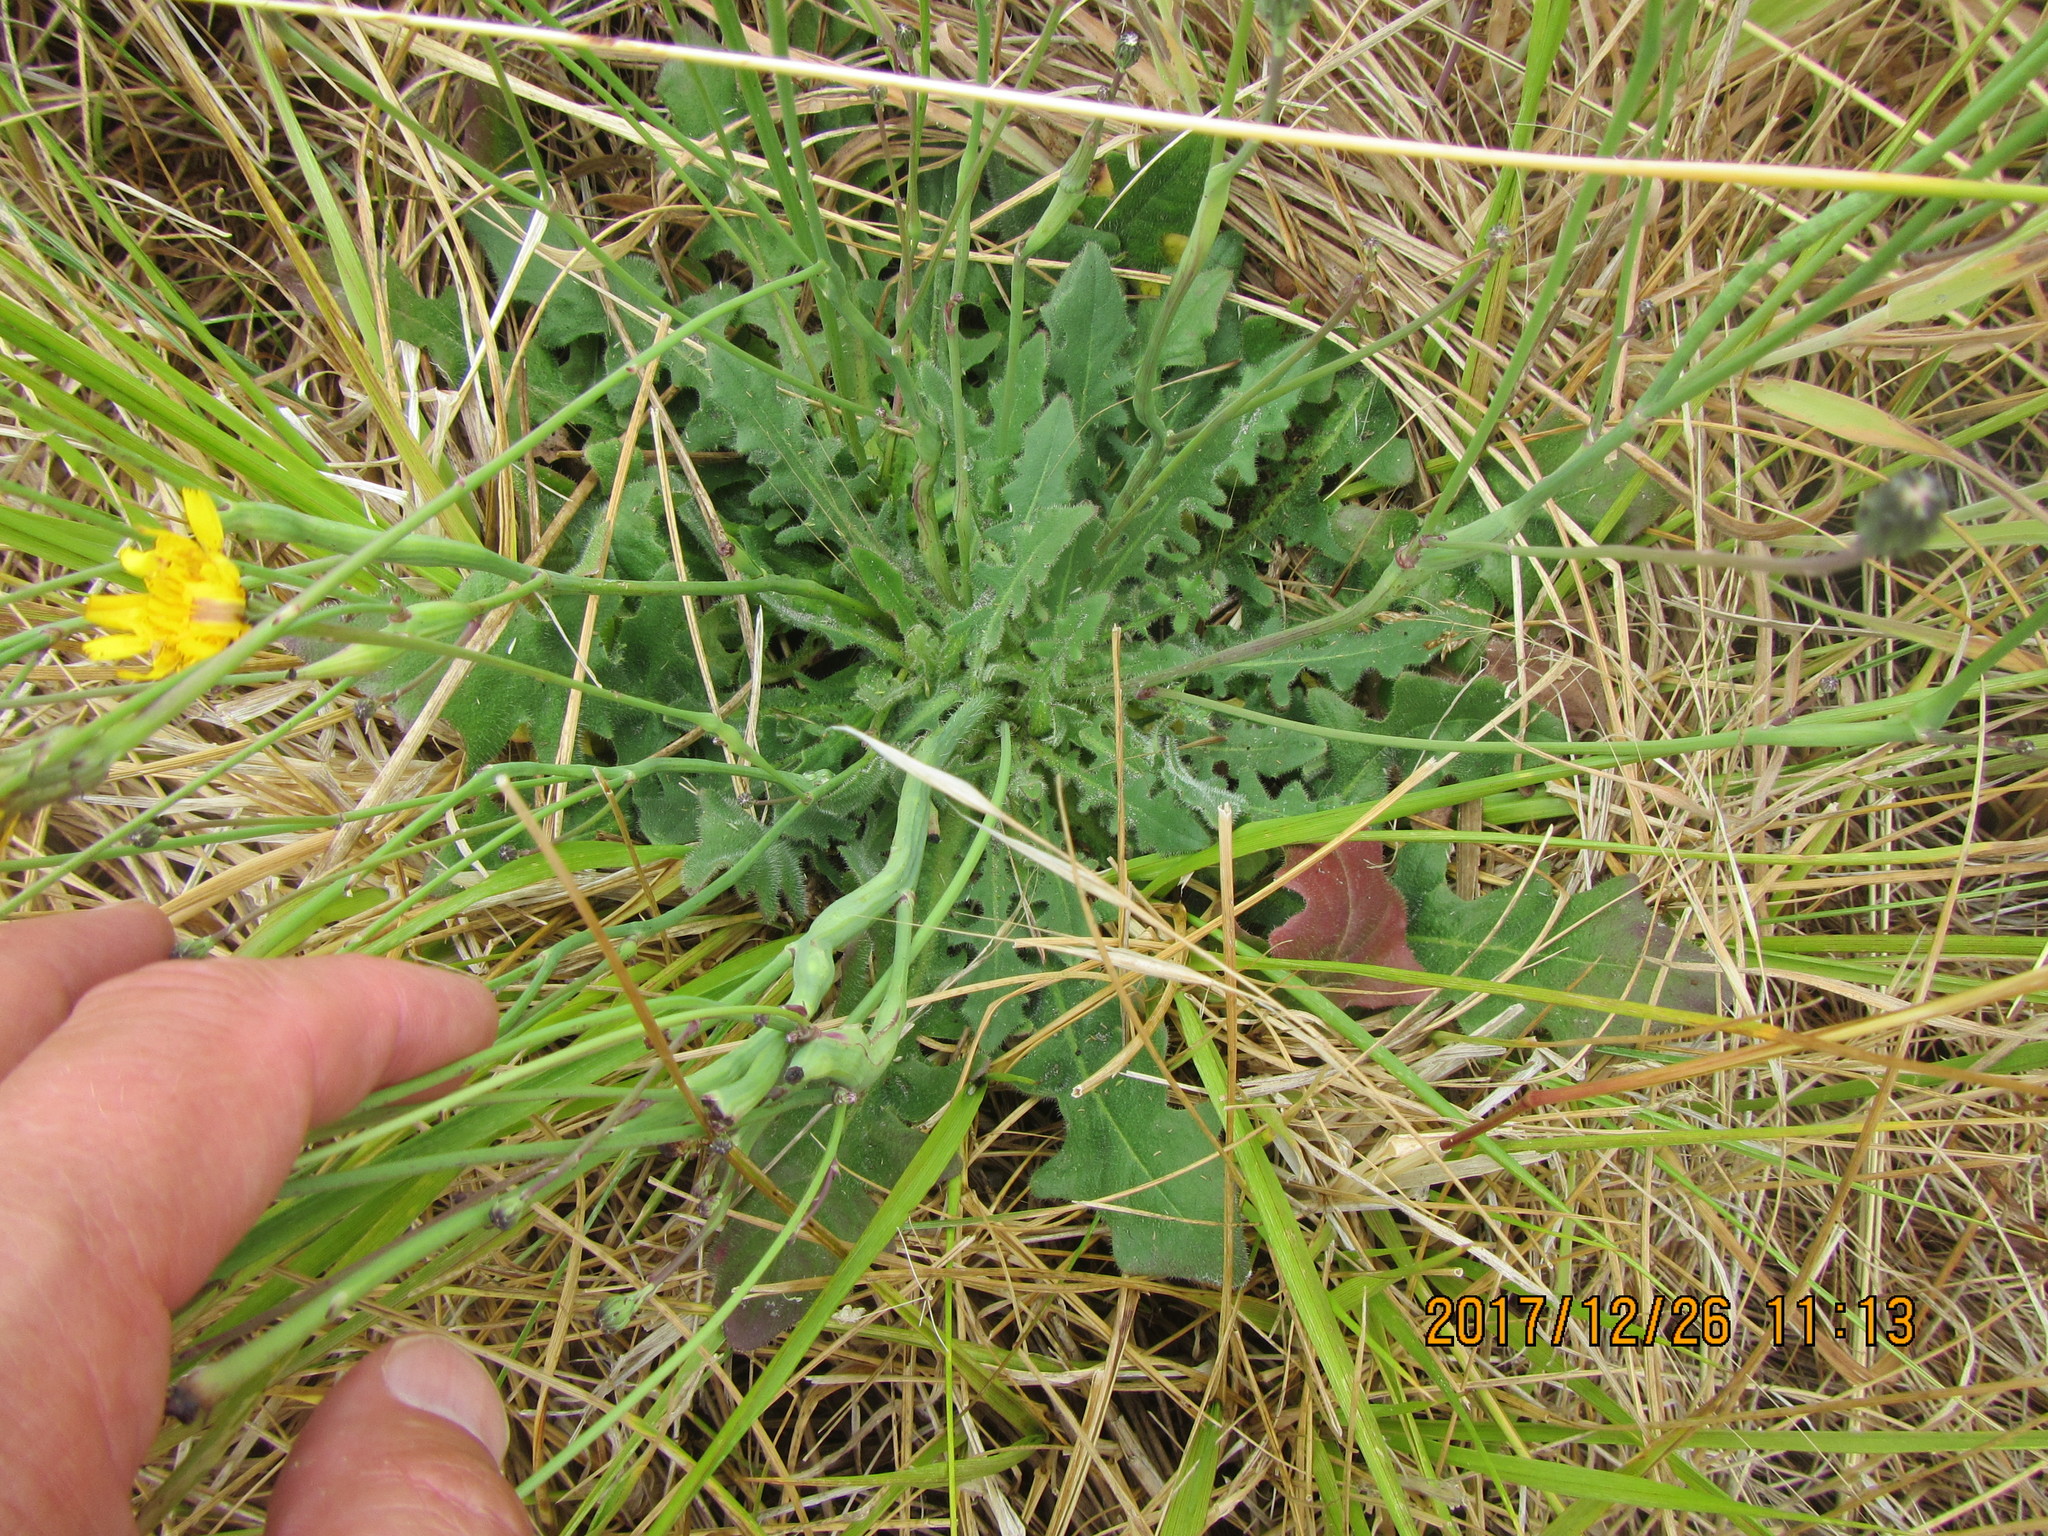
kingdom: Plantae
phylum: Tracheophyta
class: Magnoliopsida
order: Asterales
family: Asteraceae
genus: Hypochaeris
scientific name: Hypochaeris radicata
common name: Flatweed
